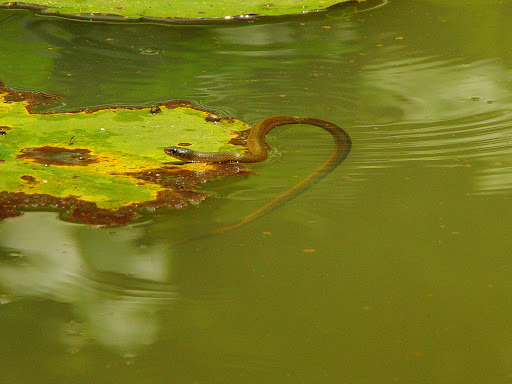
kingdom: Animalia
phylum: Chordata
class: Squamata
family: Colubridae
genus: Natriciteres
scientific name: Natriciteres olivacea
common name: Olive marsh snake
